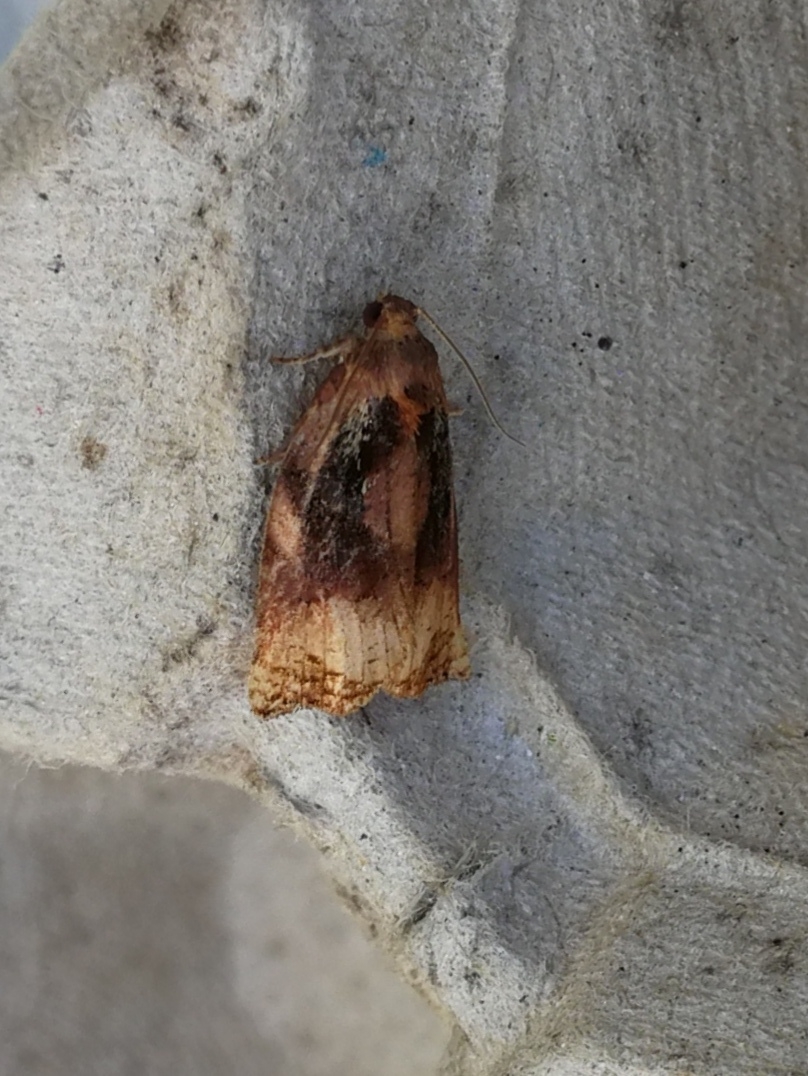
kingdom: Animalia
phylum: Arthropoda
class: Insecta
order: Lepidoptera
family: Tortricidae
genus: Archips
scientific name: Archips podana
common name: Large fruit-tree tortrix
